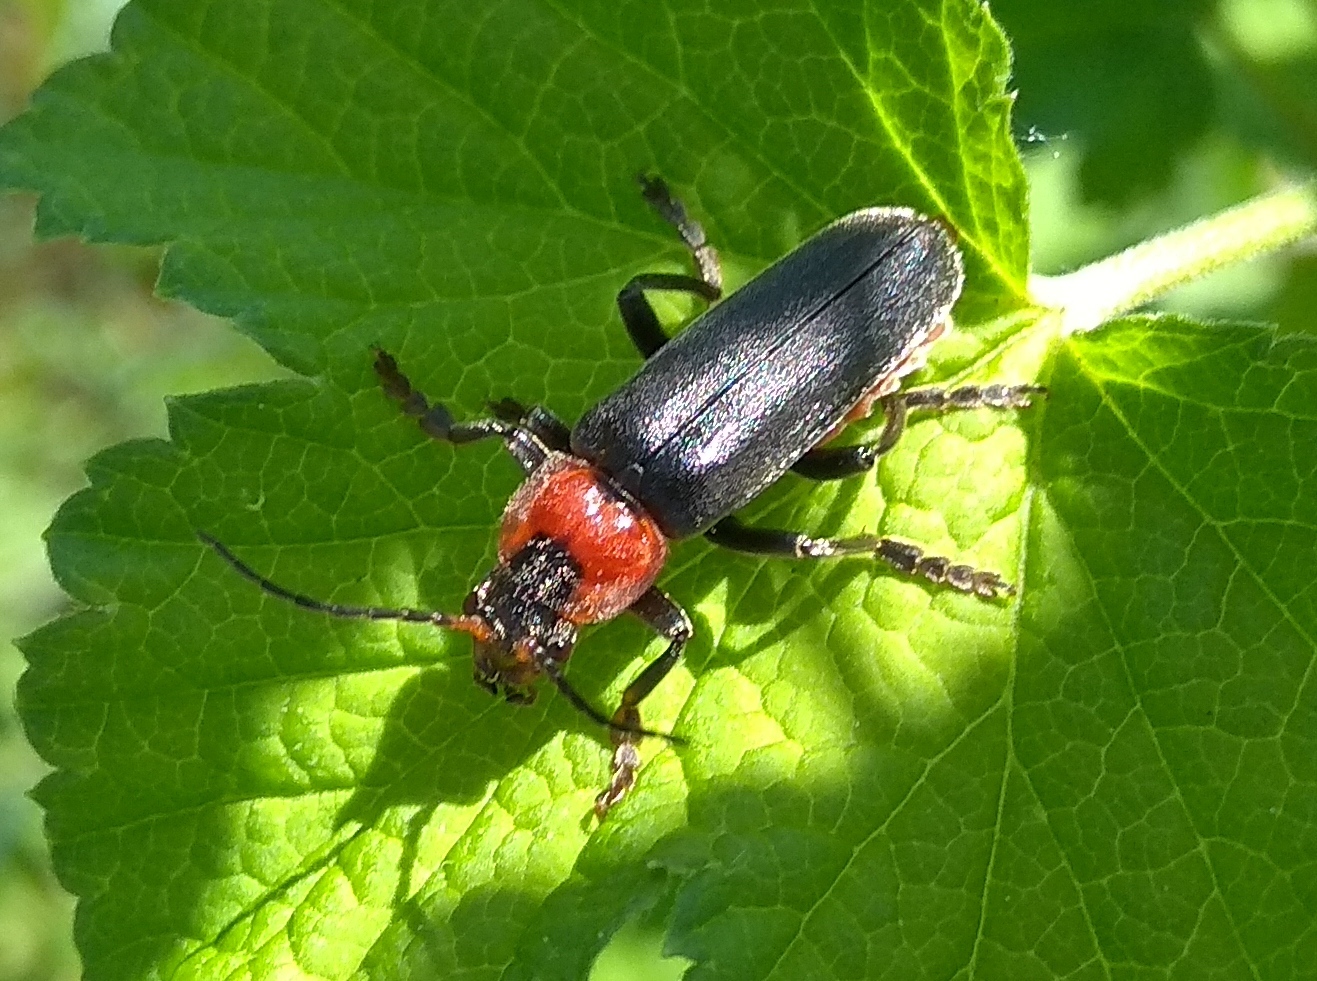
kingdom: Animalia
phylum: Arthropoda
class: Insecta
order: Coleoptera
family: Cantharidae
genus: Cantharis
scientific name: Cantharis fusca
